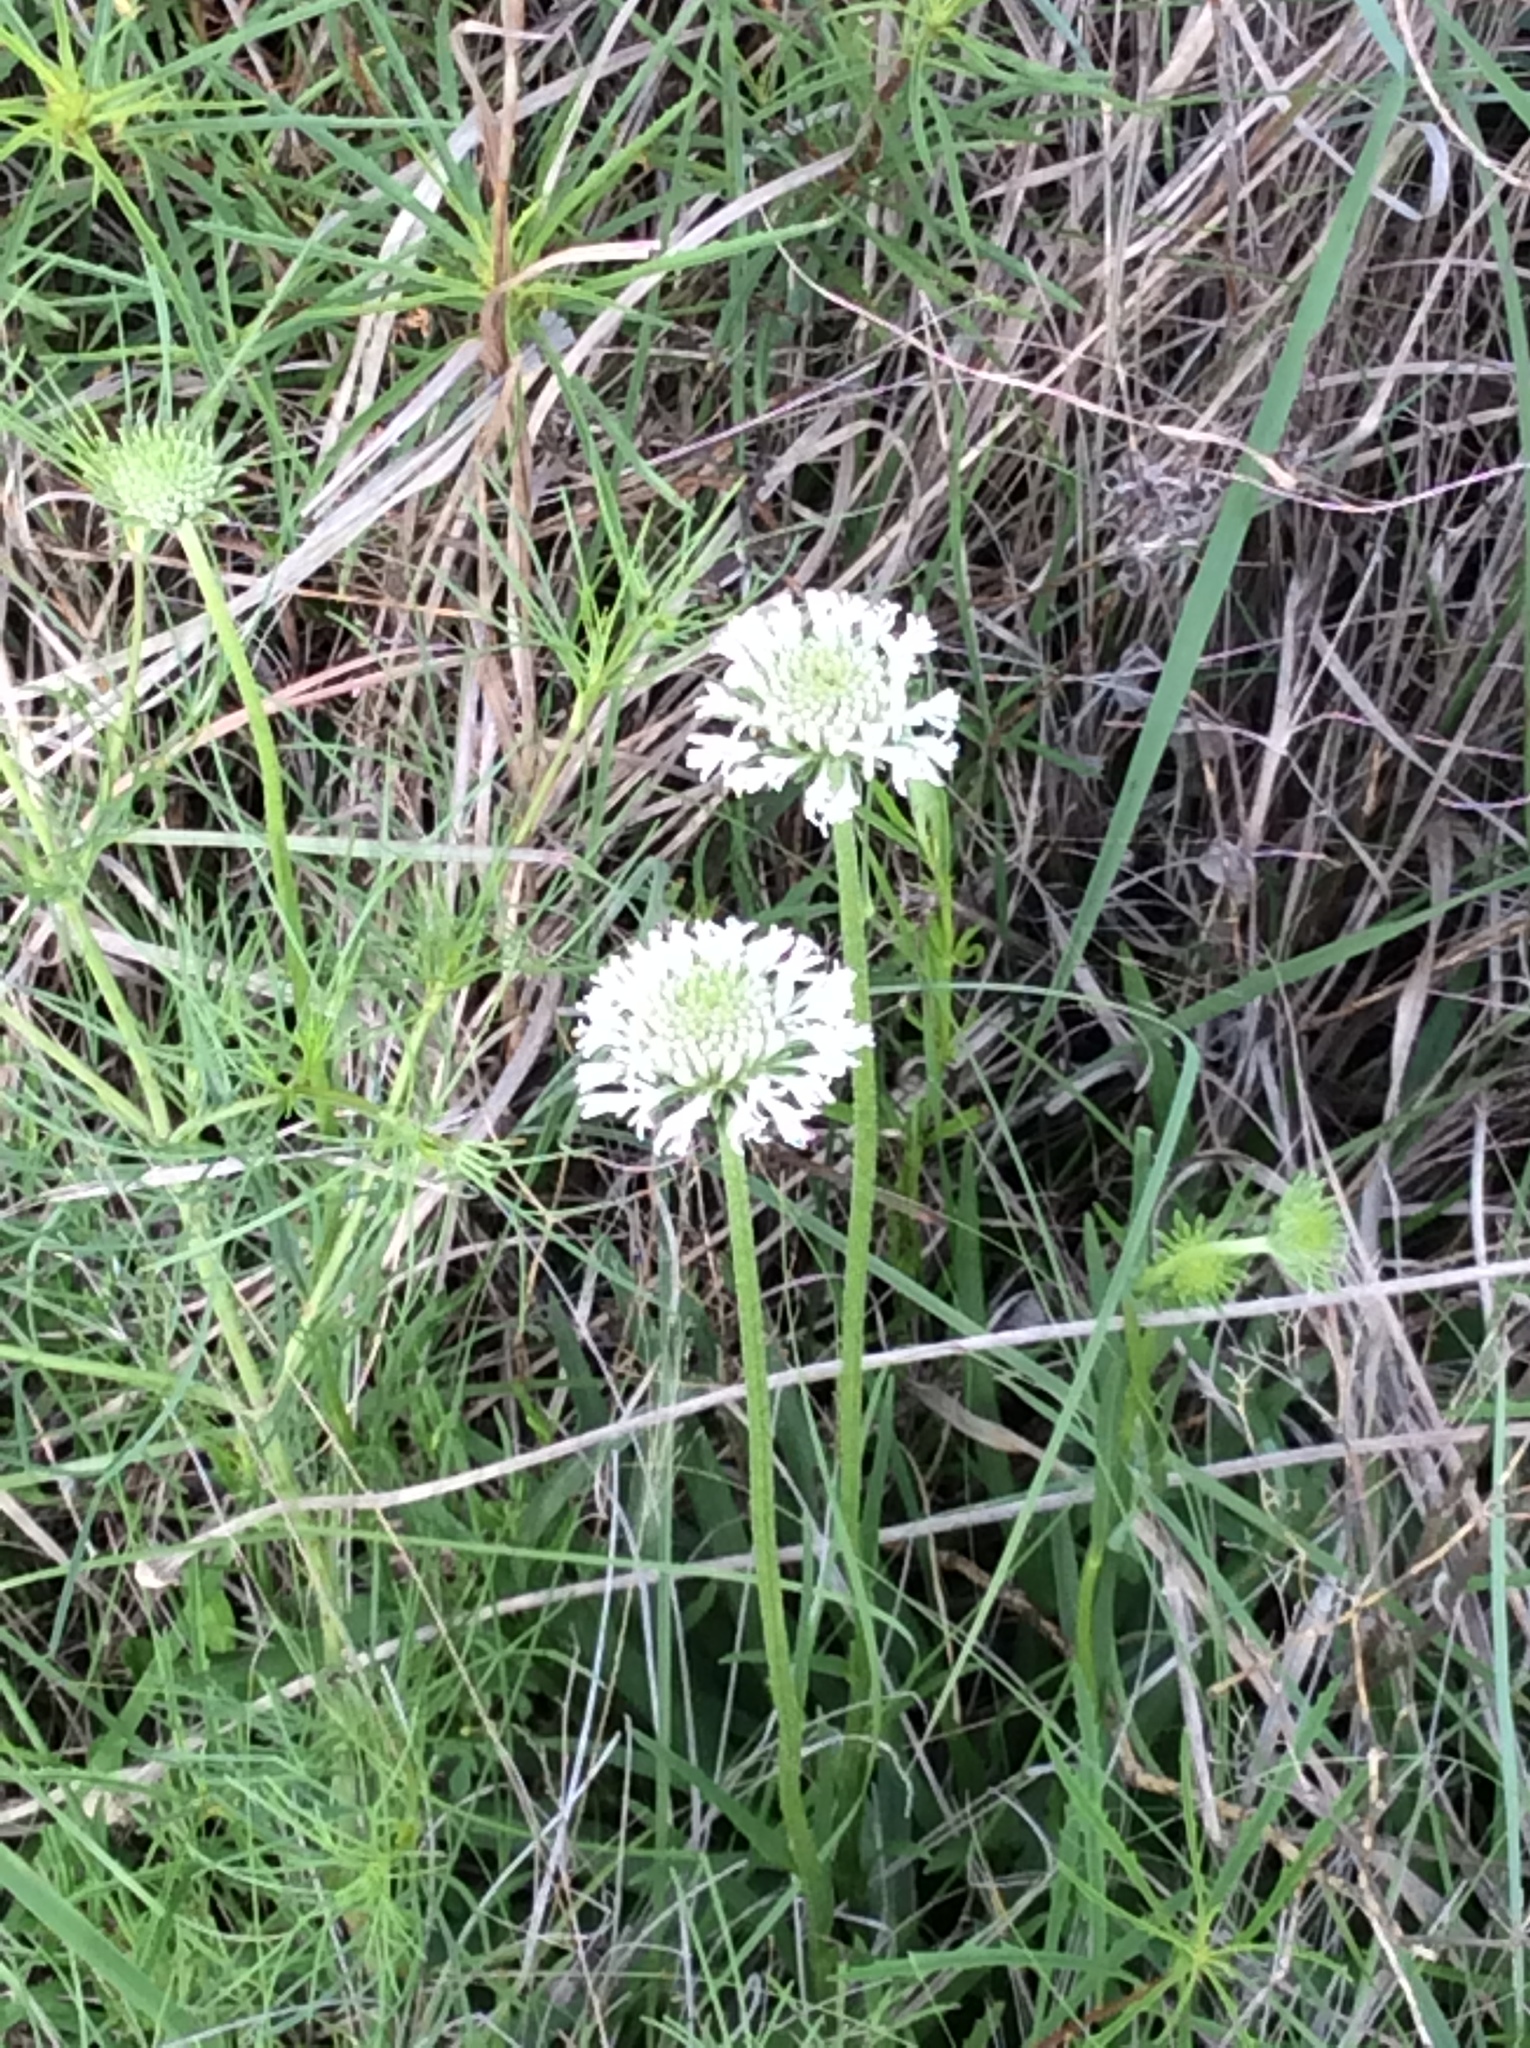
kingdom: Plantae
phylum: Tracheophyta
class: Magnoliopsida
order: Asterales
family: Asteraceae
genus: Marshallia
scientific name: Marshallia caespitosa
